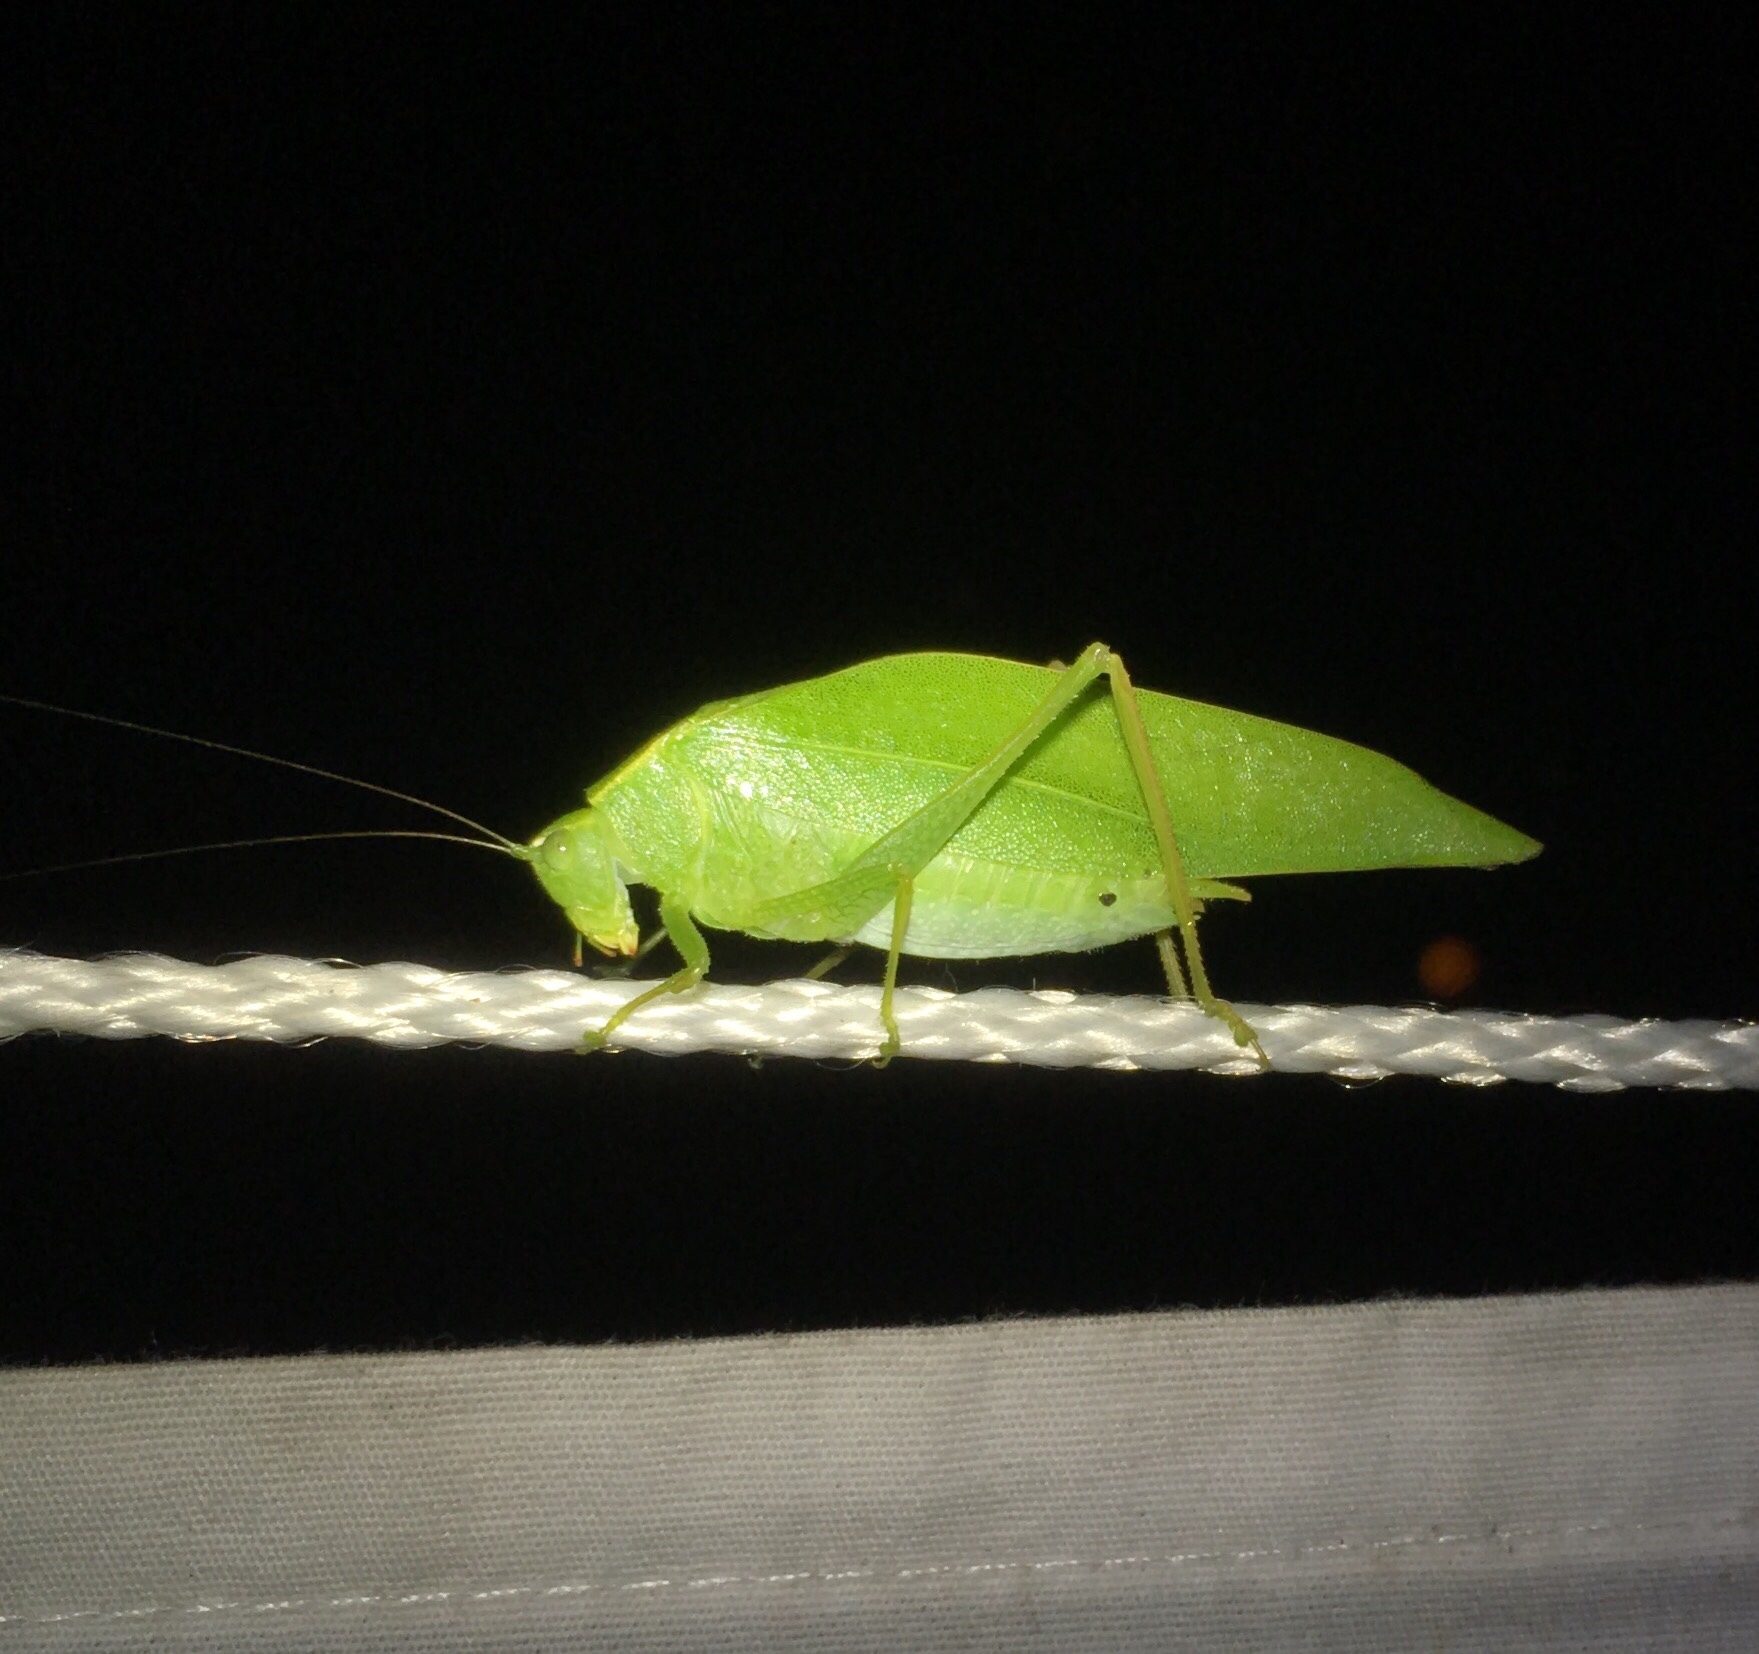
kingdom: Animalia
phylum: Arthropoda
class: Insecta
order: Orthoptera
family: Tettigoniidae
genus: Turpilia
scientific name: Turpilia rostrata
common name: Narrow-beaked katydid
